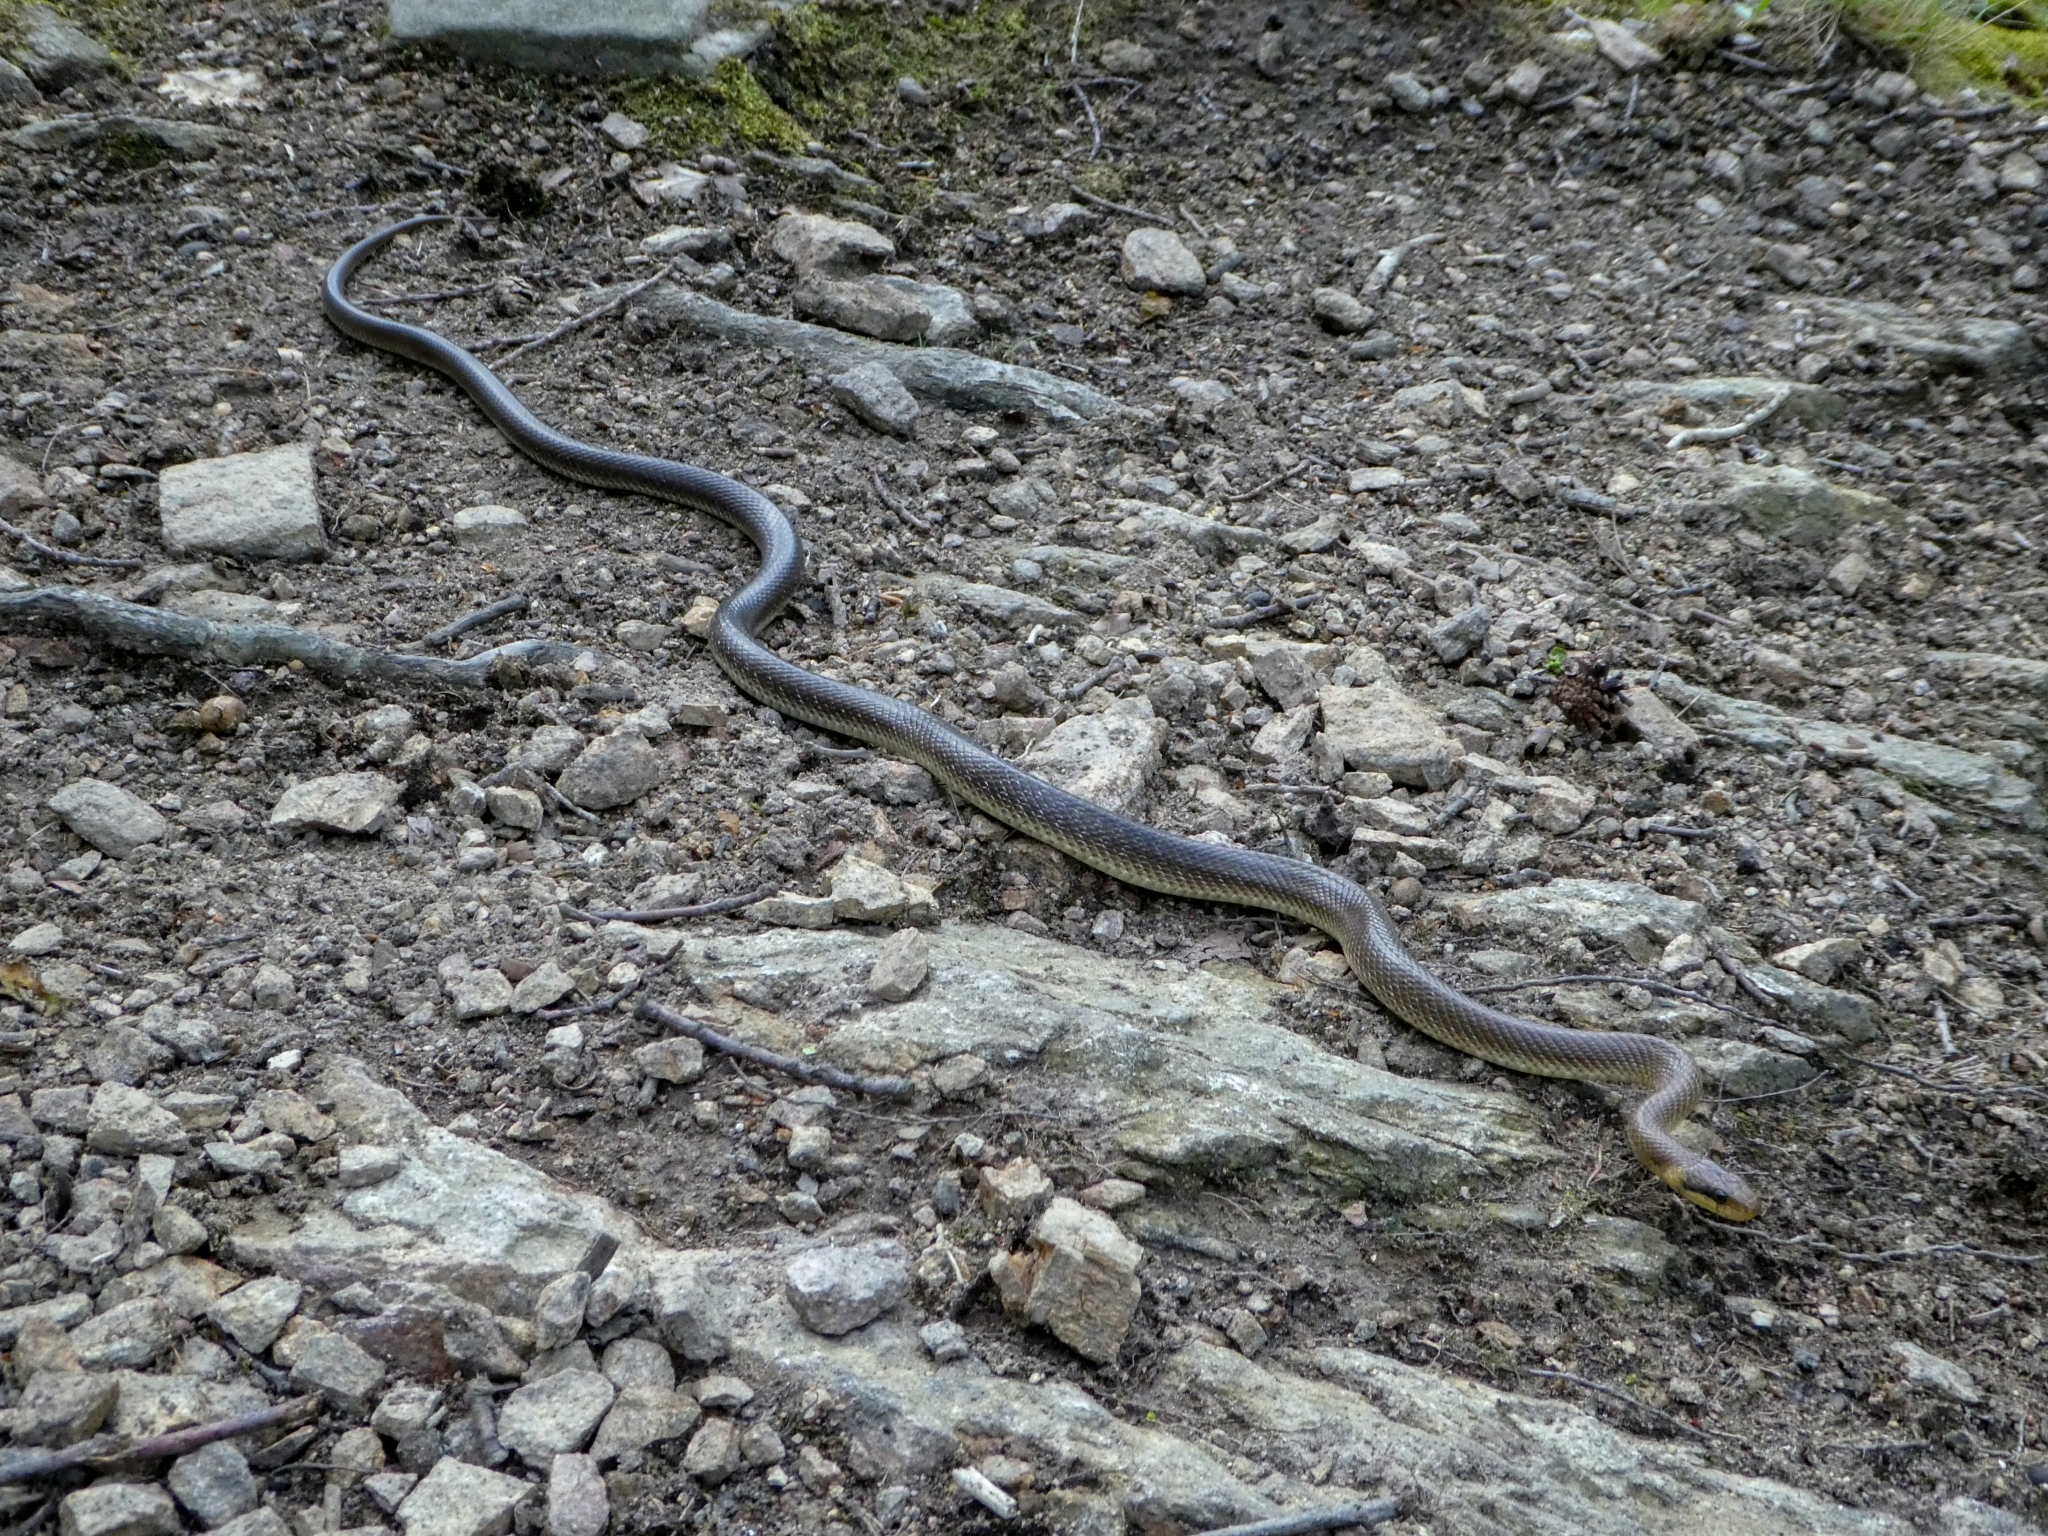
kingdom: Animalia
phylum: Chordata
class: Squamata
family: Colubridae
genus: Zamenis
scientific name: Zamenis longissimus
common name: Aesculapean snake
